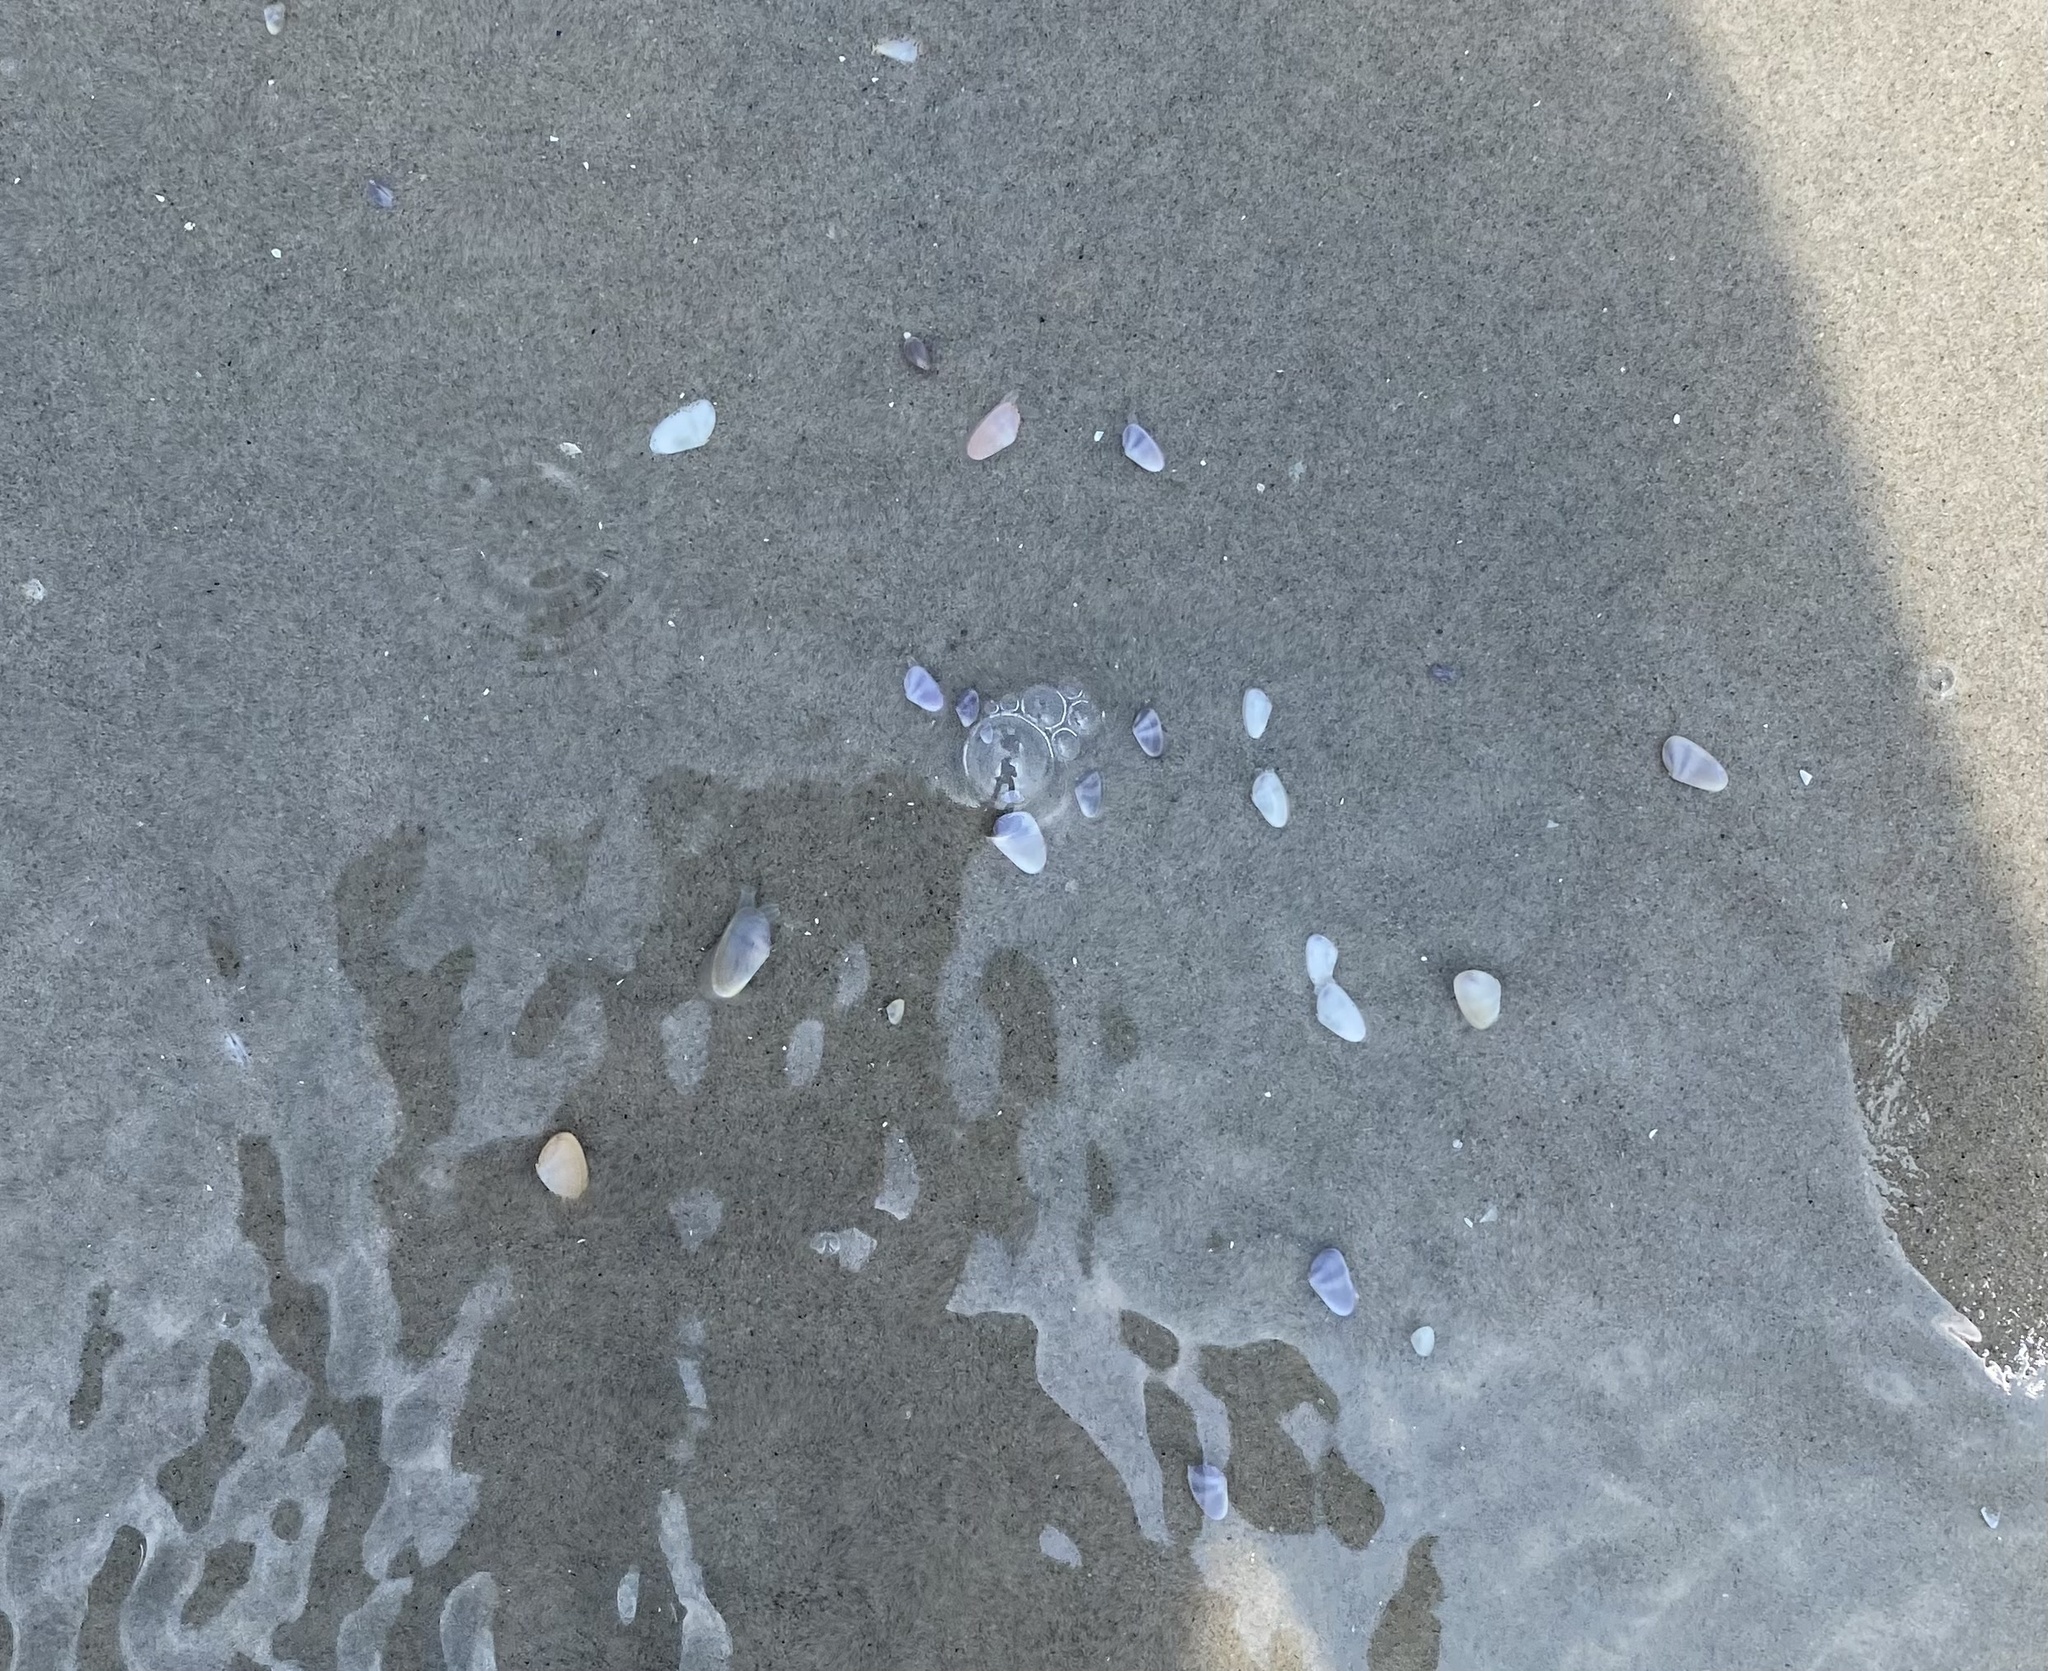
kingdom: Animalia
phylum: Mollusca
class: Bivalvia
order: Cardiida
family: Donacidae
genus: Donax
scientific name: Donax fossor
